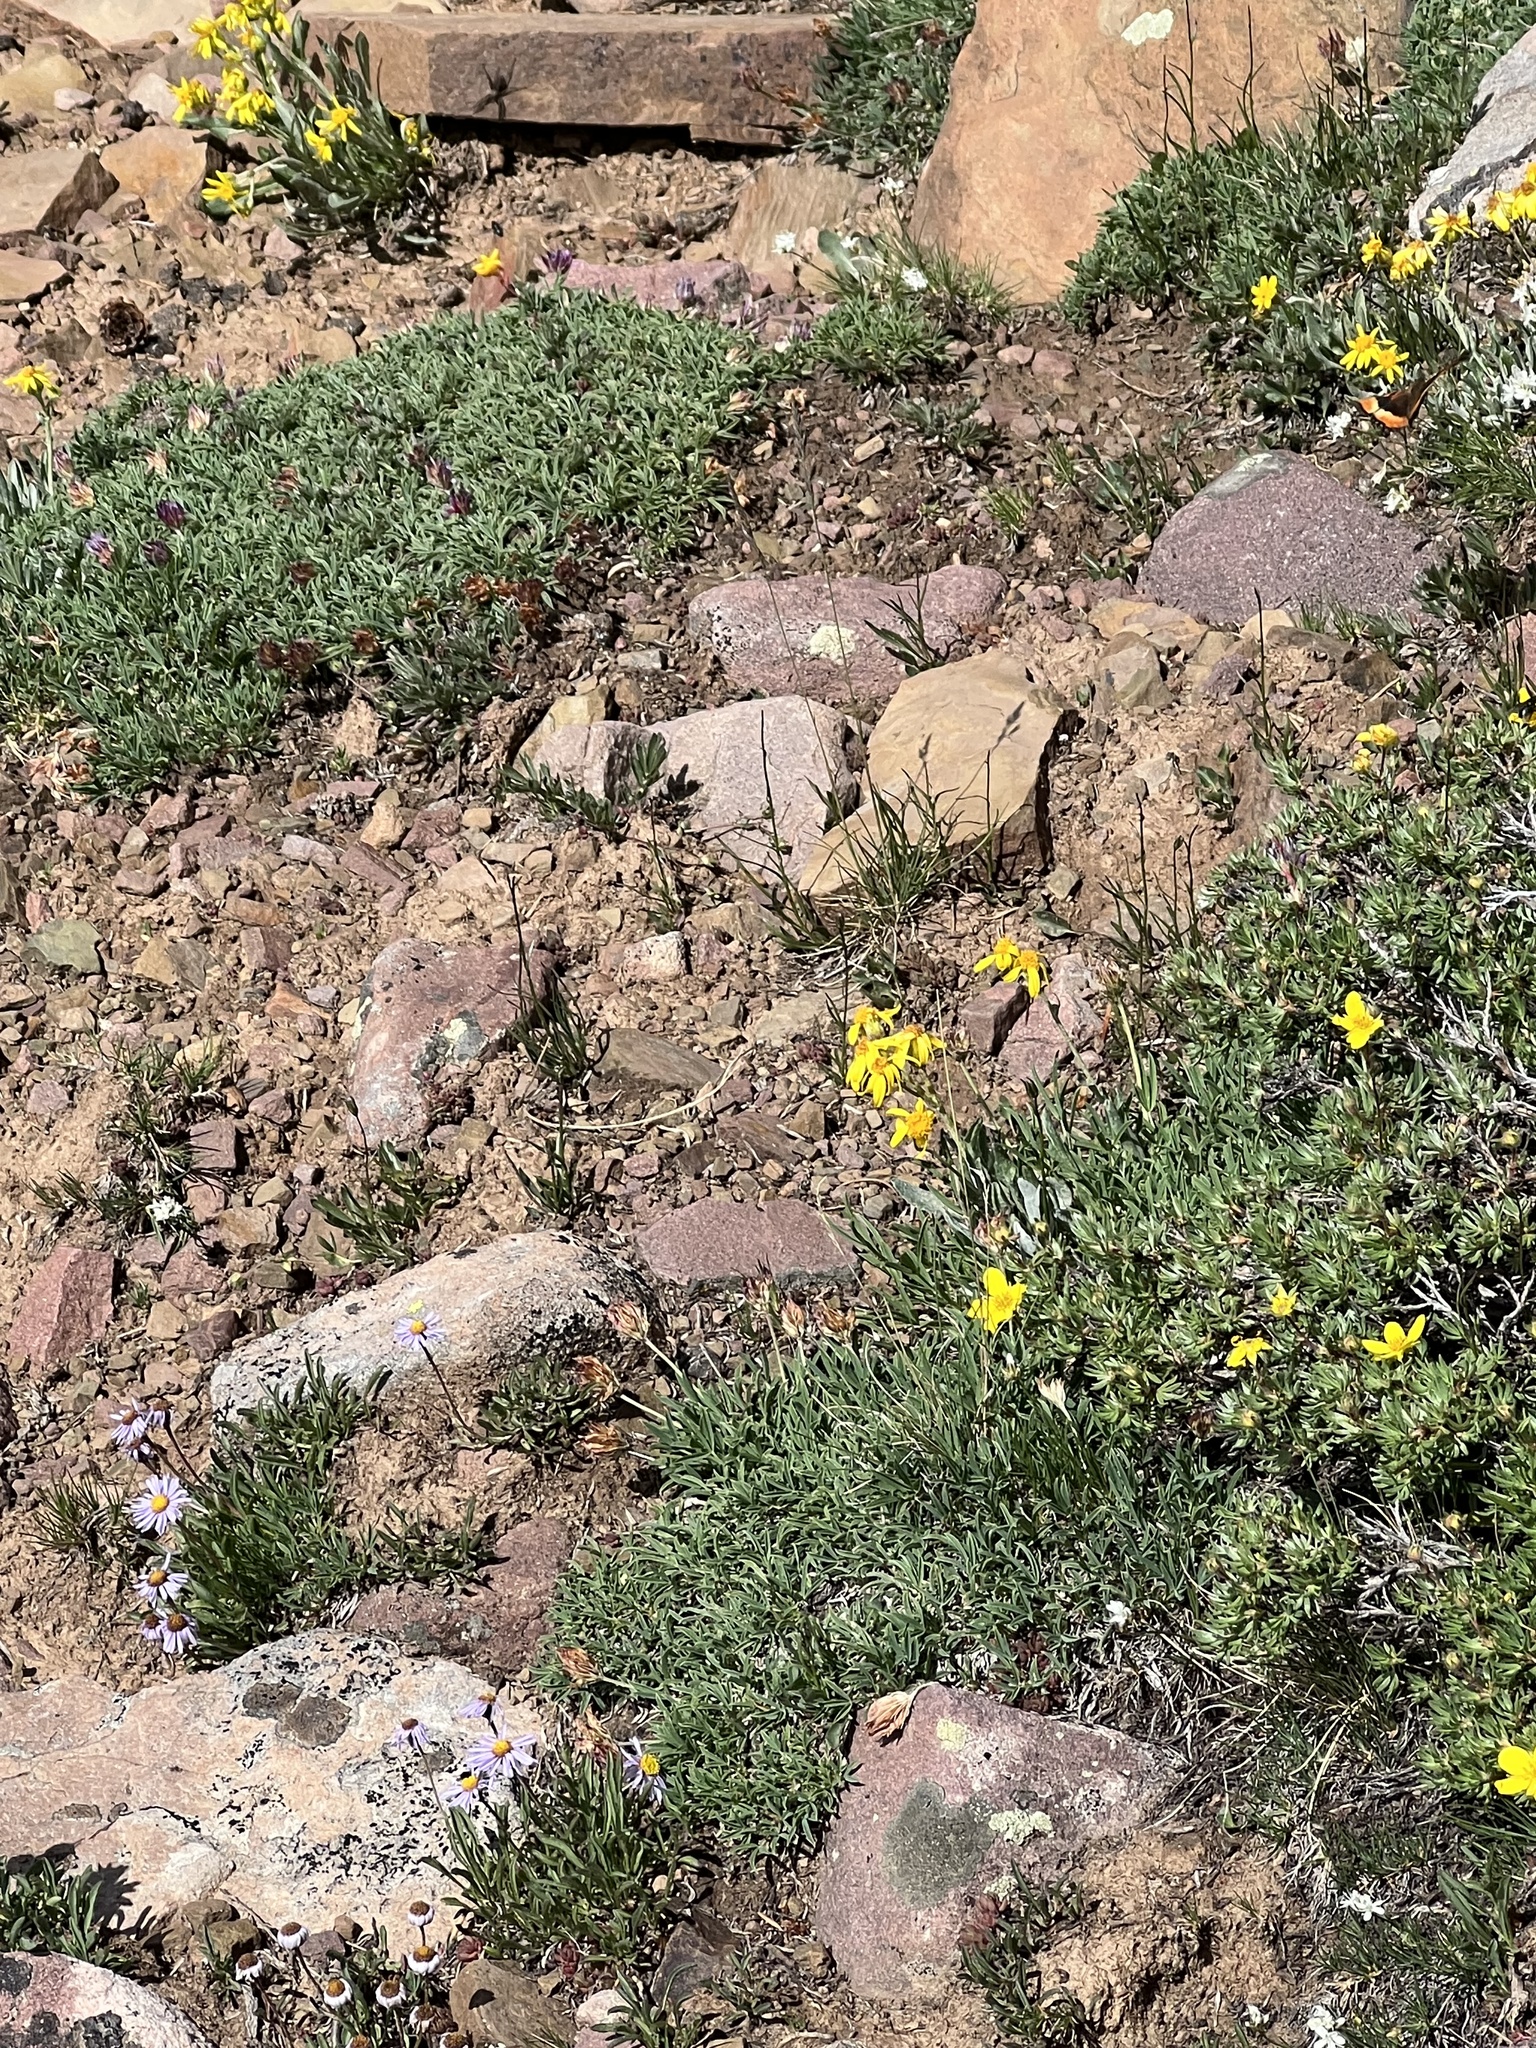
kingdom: Animalia
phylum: Arthropoda
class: Insecta
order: Lepidoptera
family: Nymphalidae
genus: Aglais
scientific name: Aglais milberti
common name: Milbert's tortoiseshell
